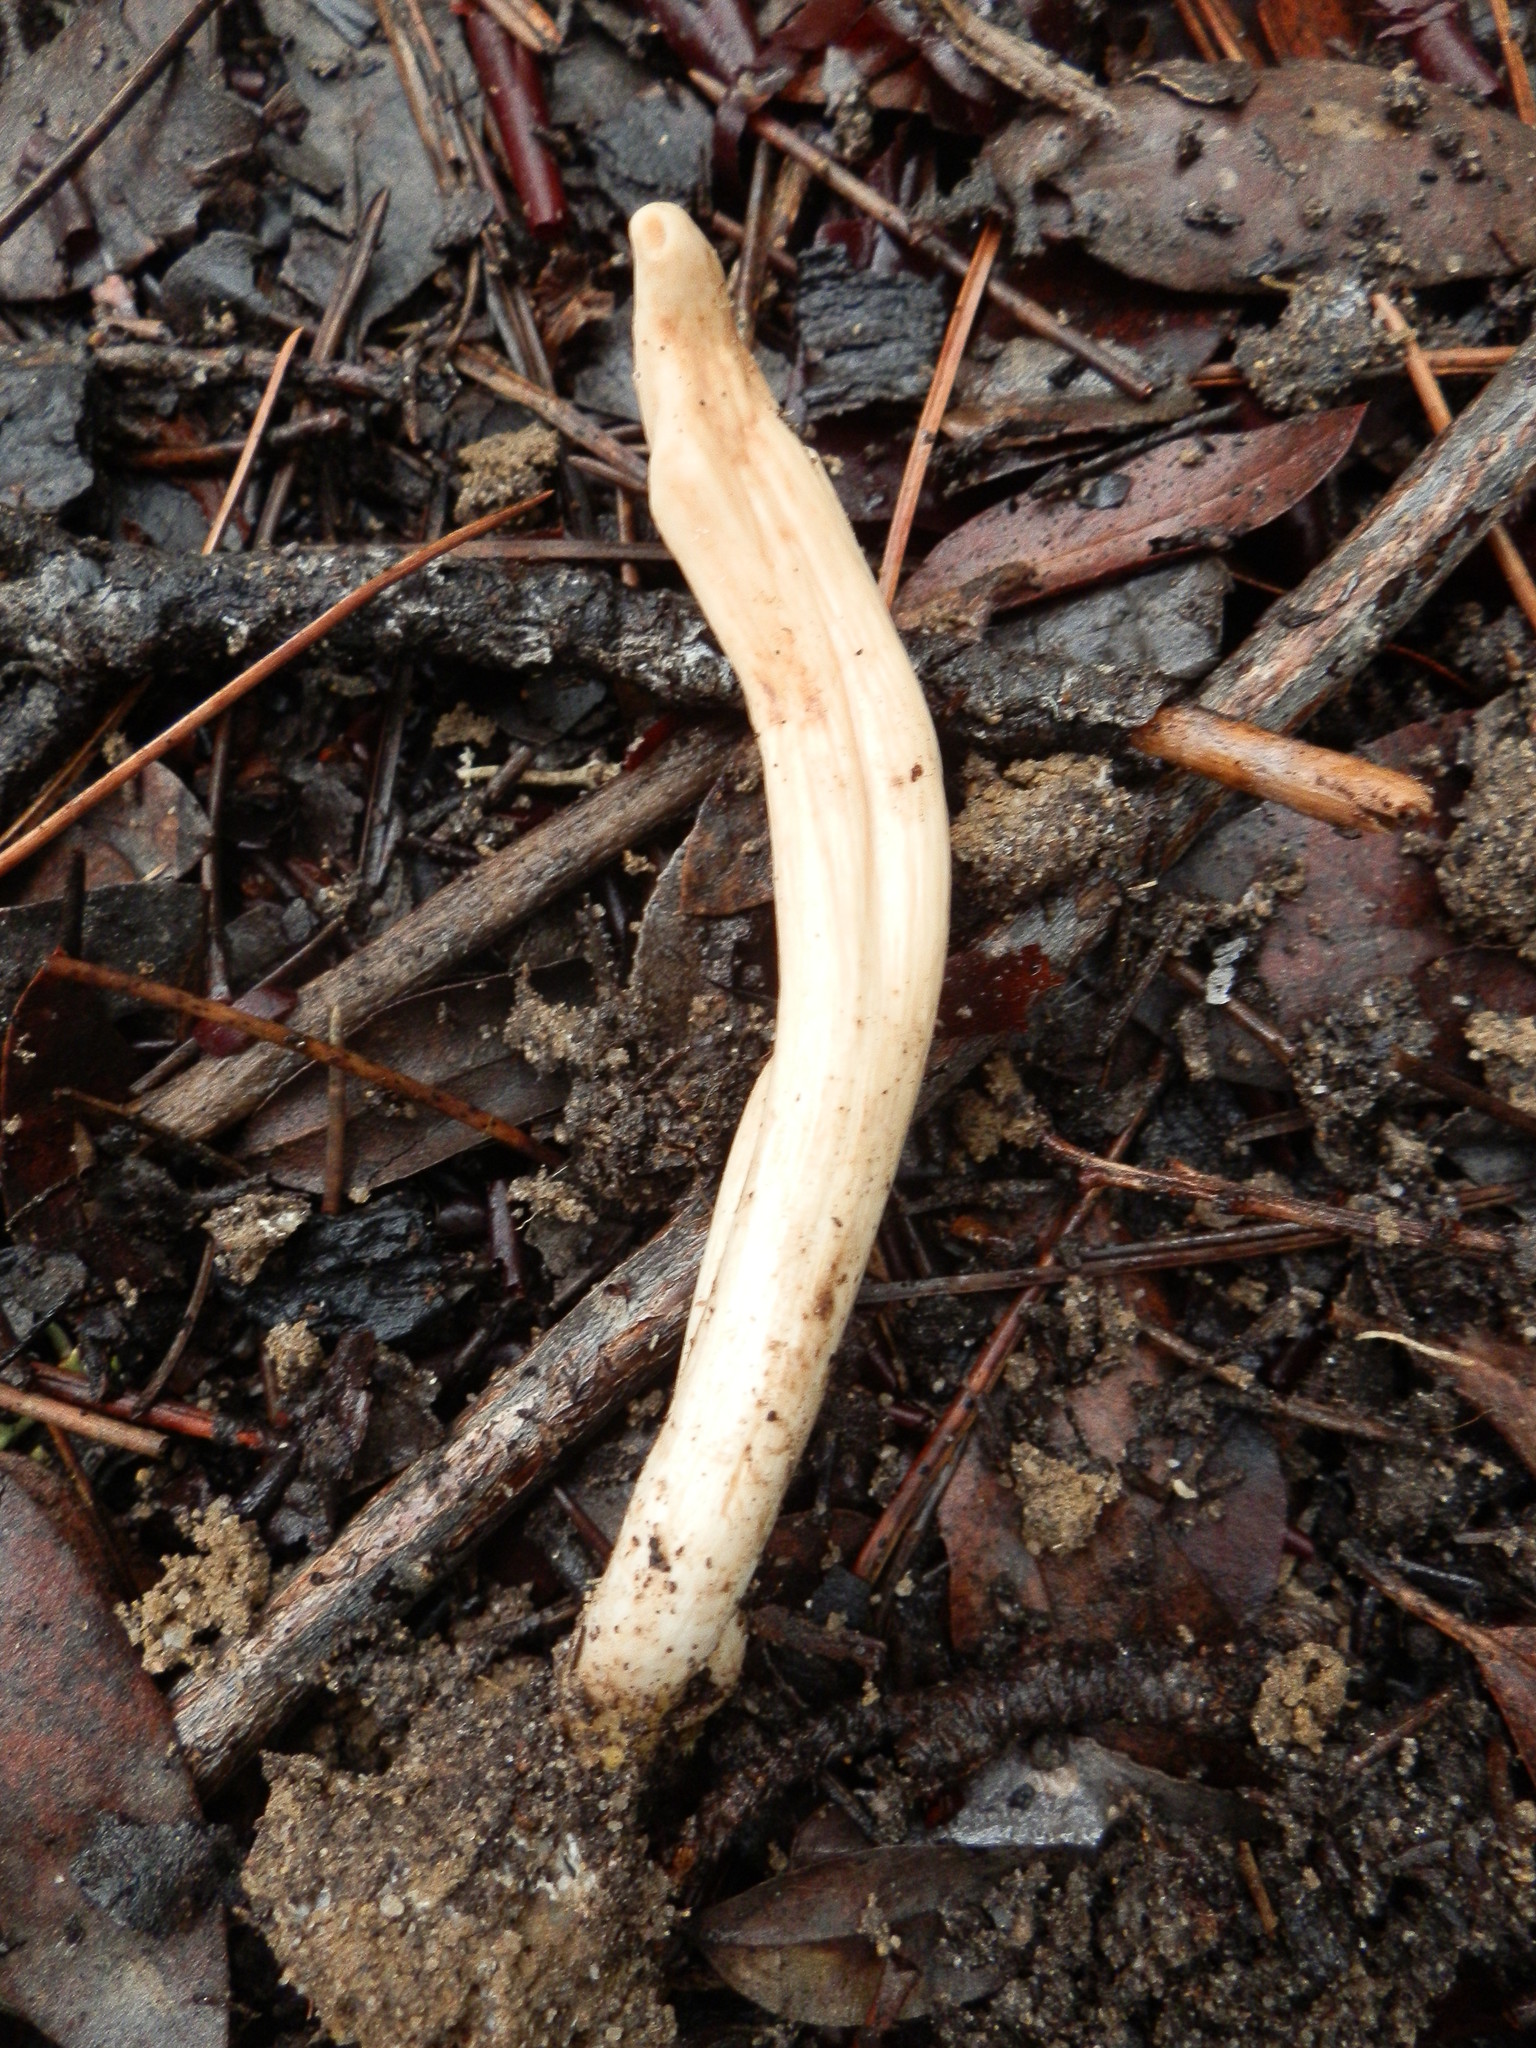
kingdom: Fungi
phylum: Basidiomycota
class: Agaricomycetes
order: Gomphales
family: Clavariadelphaceae
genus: Clavariadelphus
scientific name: Clavariadelphus occidentalis
